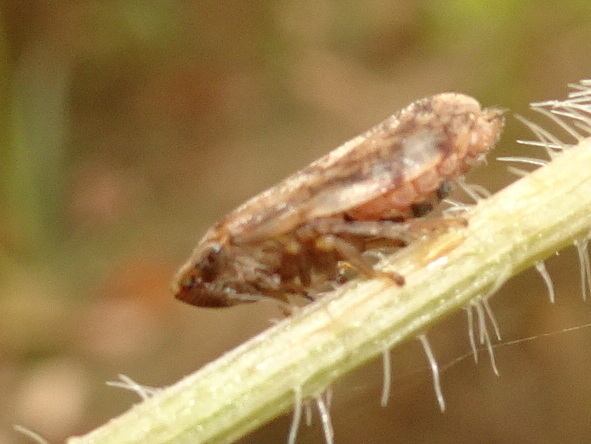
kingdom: Animalia
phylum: Arthropoda
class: Insecta
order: Hemiptera
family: Aphrophoridae
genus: Philaenus
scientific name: Philaenus spumarius
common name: Meadow spittlebug
